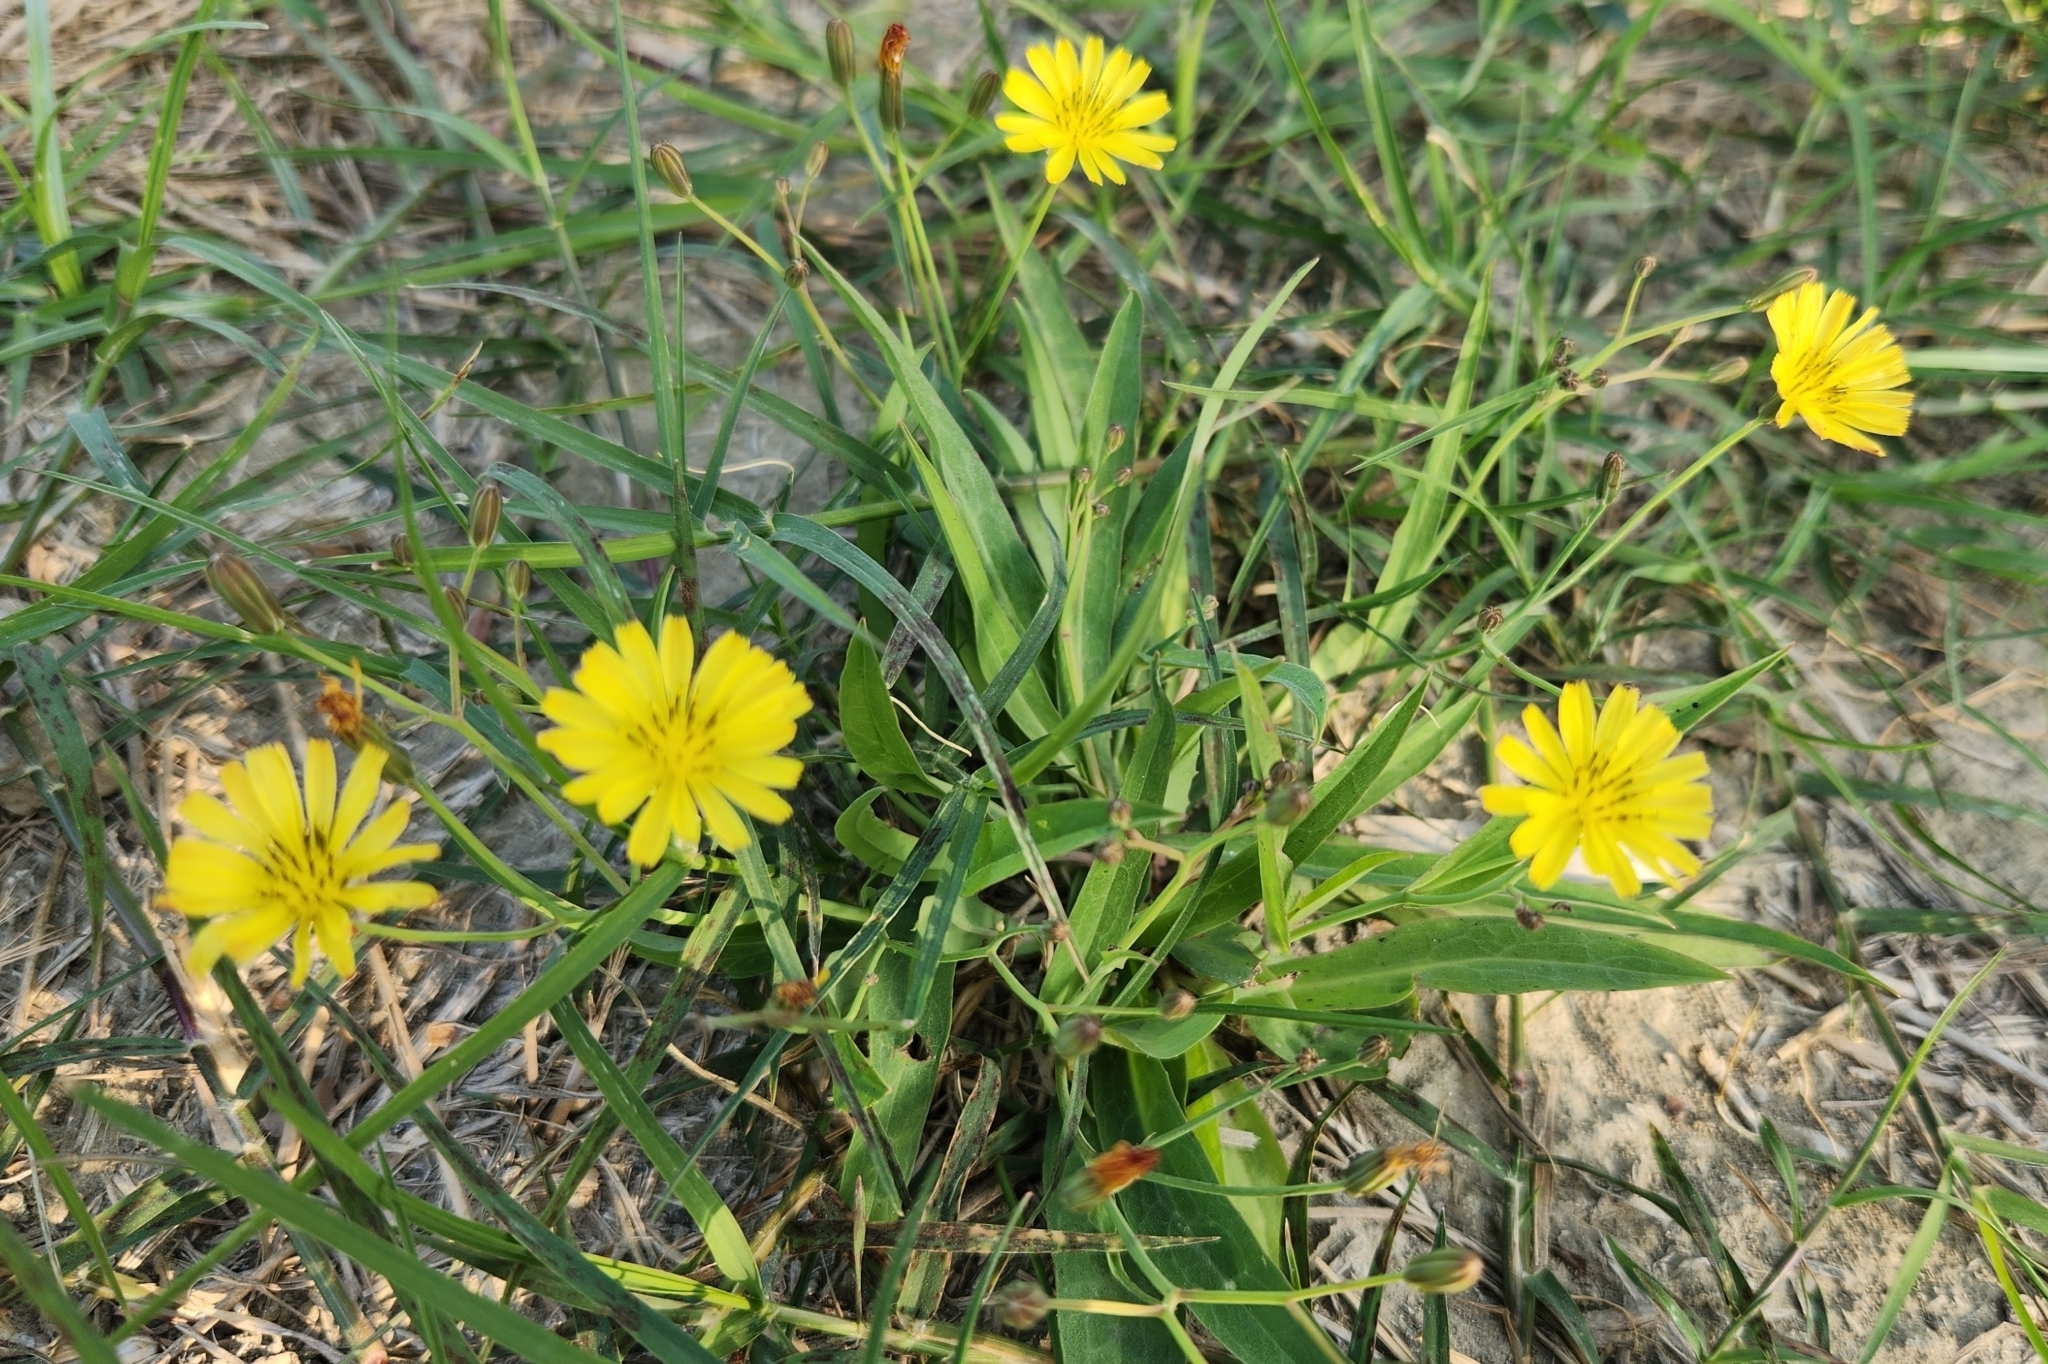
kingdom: Plantae
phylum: Tracheophyta
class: Magnoliopsida
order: Asterales
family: Asteraceae
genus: Ixeris
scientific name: Ixeris chinensis
